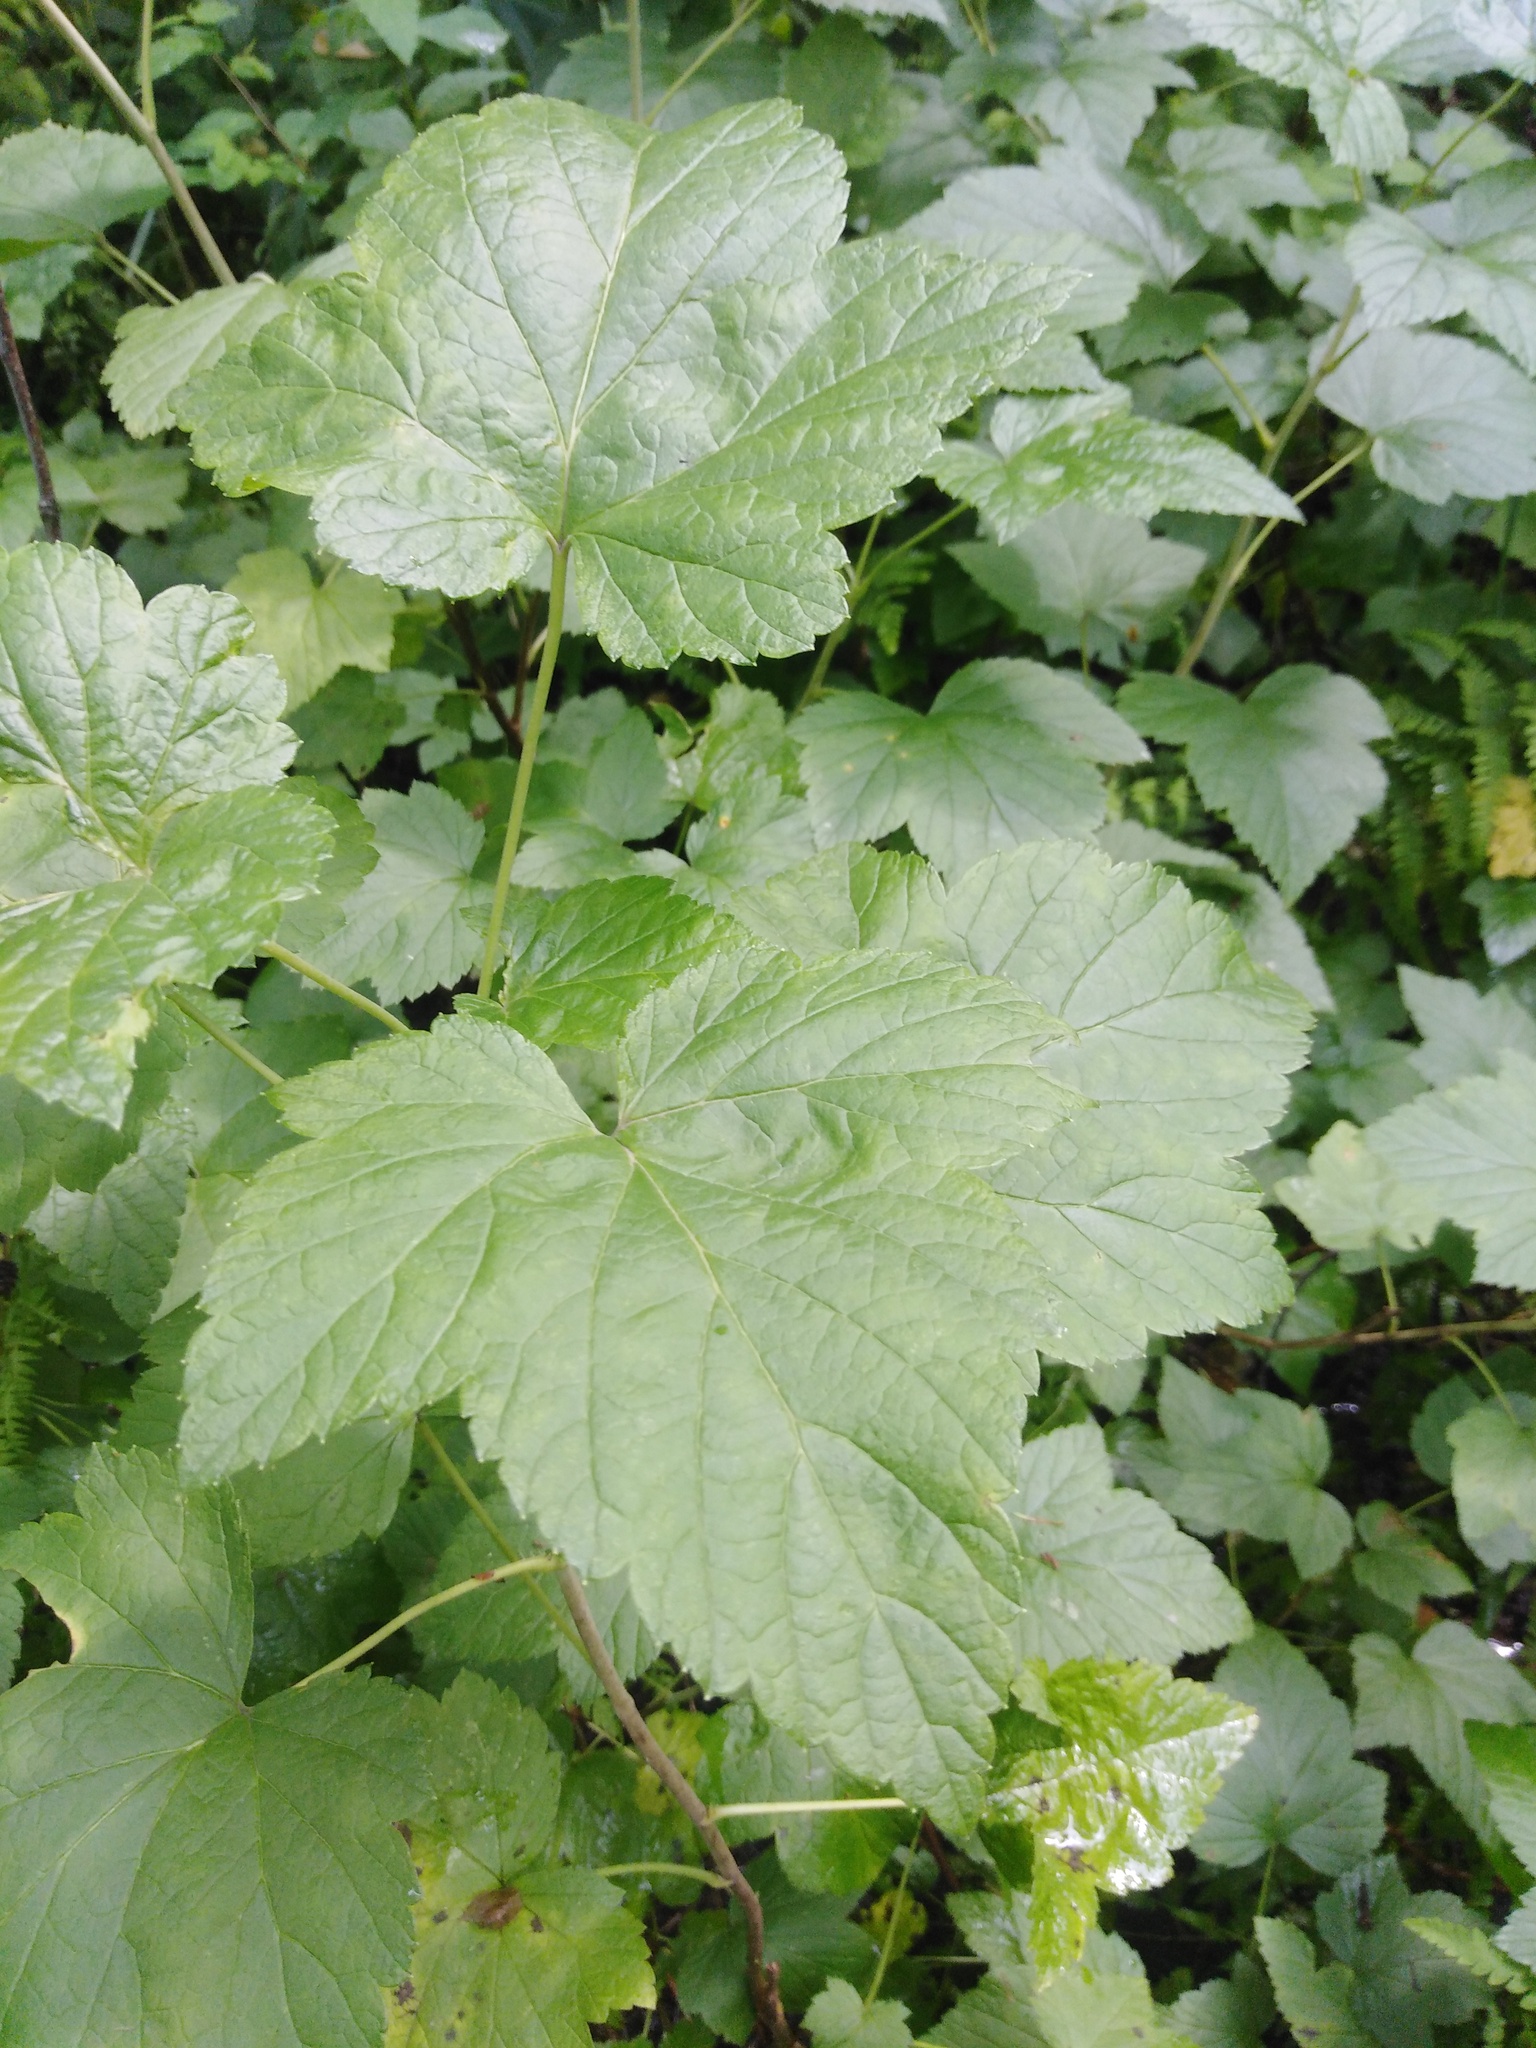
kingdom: Plantae
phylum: Tracheophyta
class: Magnoliopsida
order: Saxifragales
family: Grossulariaceae
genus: Ribes
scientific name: Ribes nigrum
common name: Black currant
